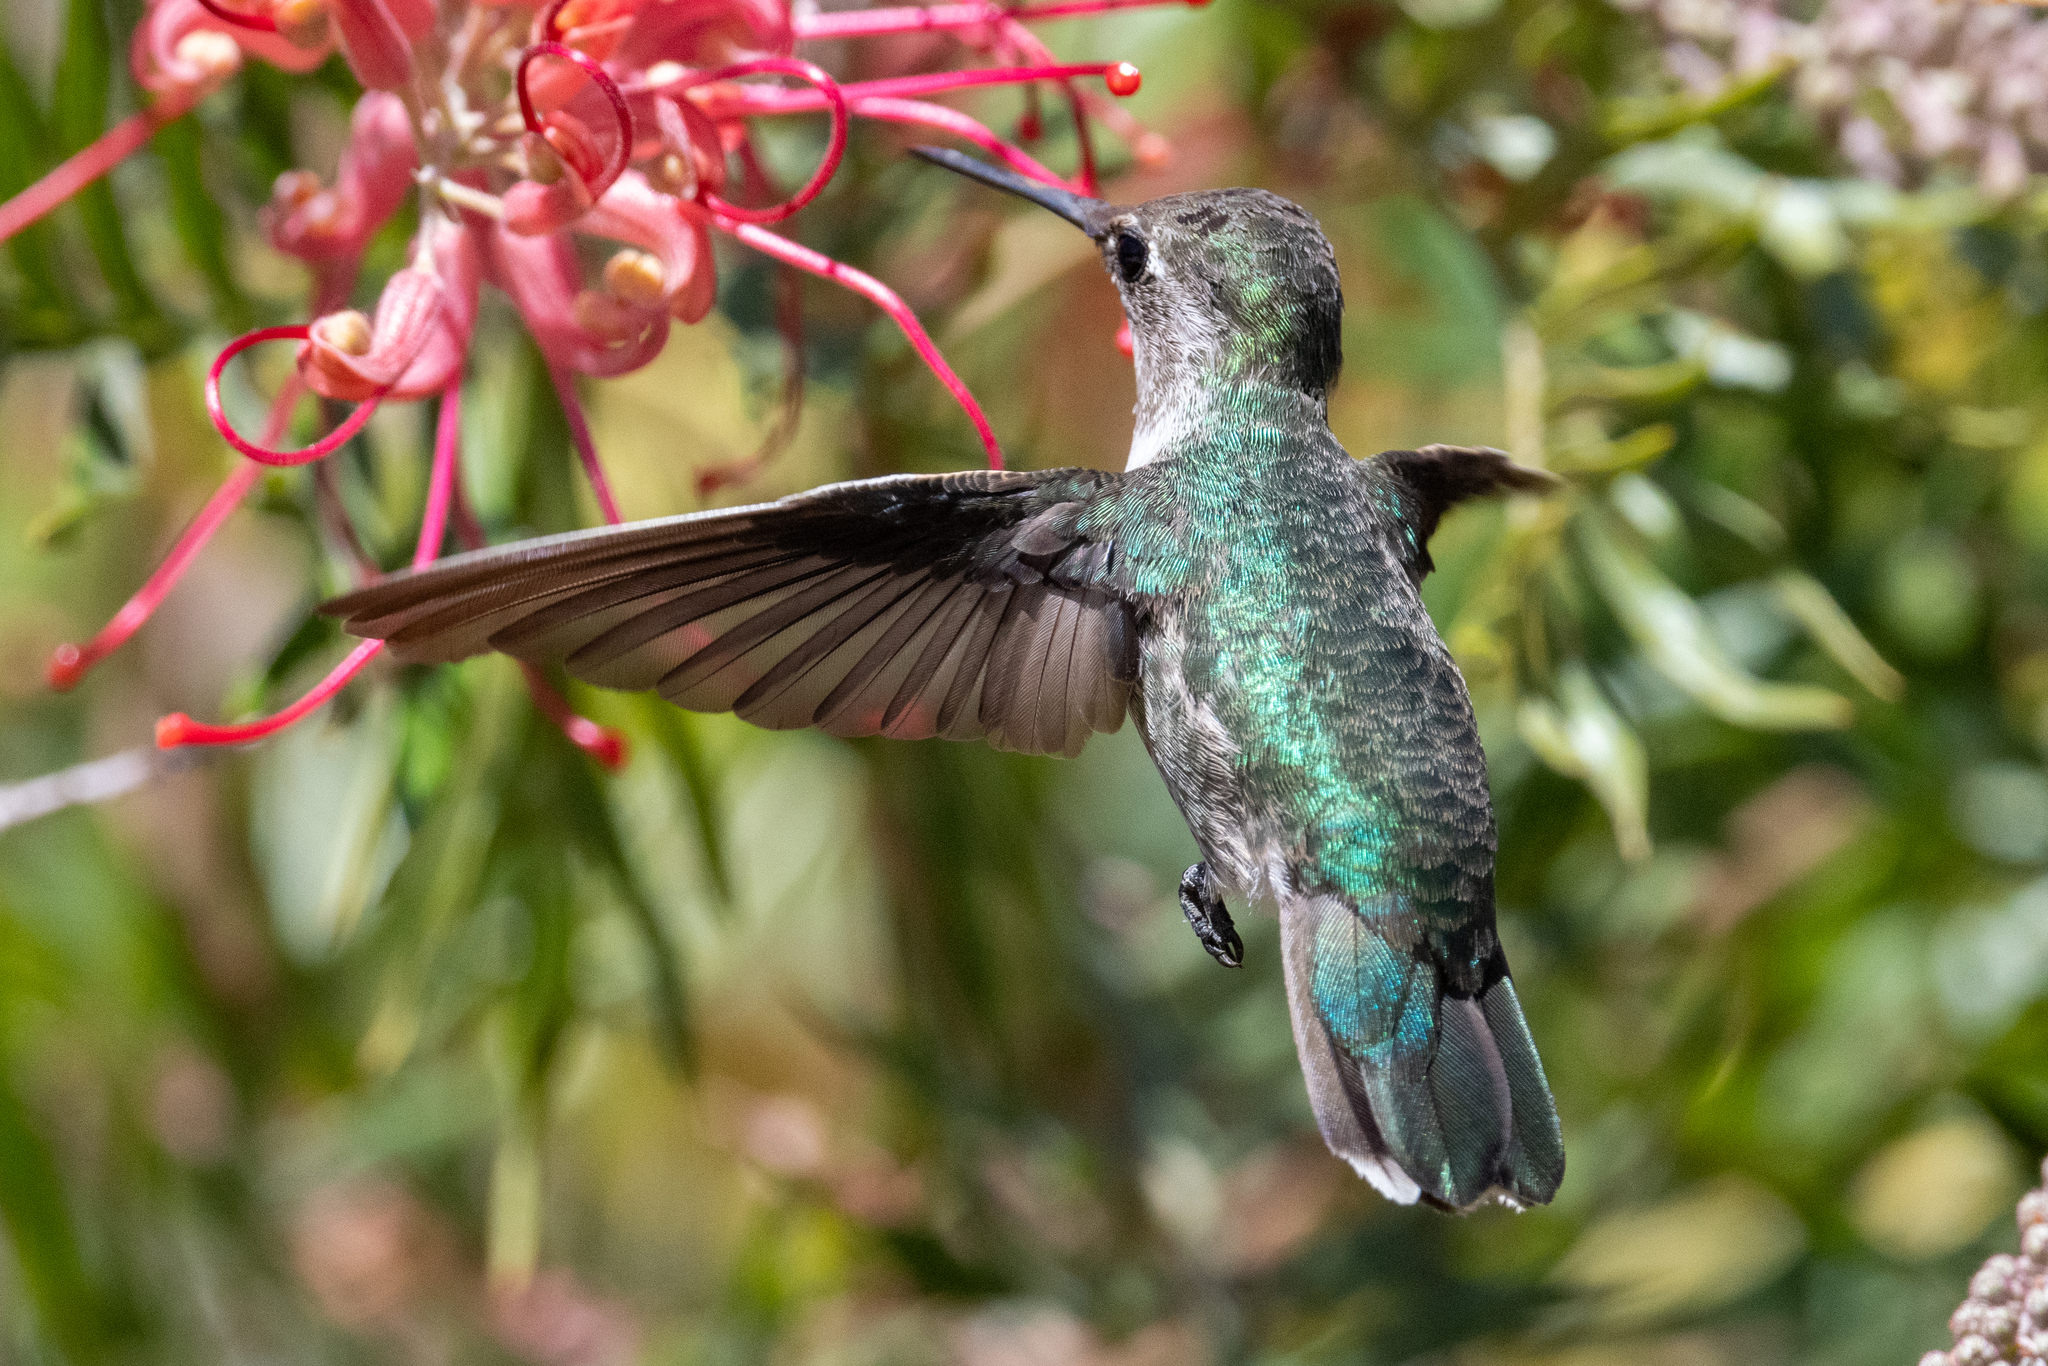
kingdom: Animalia
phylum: Chordata
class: Aves
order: Apodiformes
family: Trochilidae
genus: Calypte
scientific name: Calypte anna
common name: Anna's hummingbird
